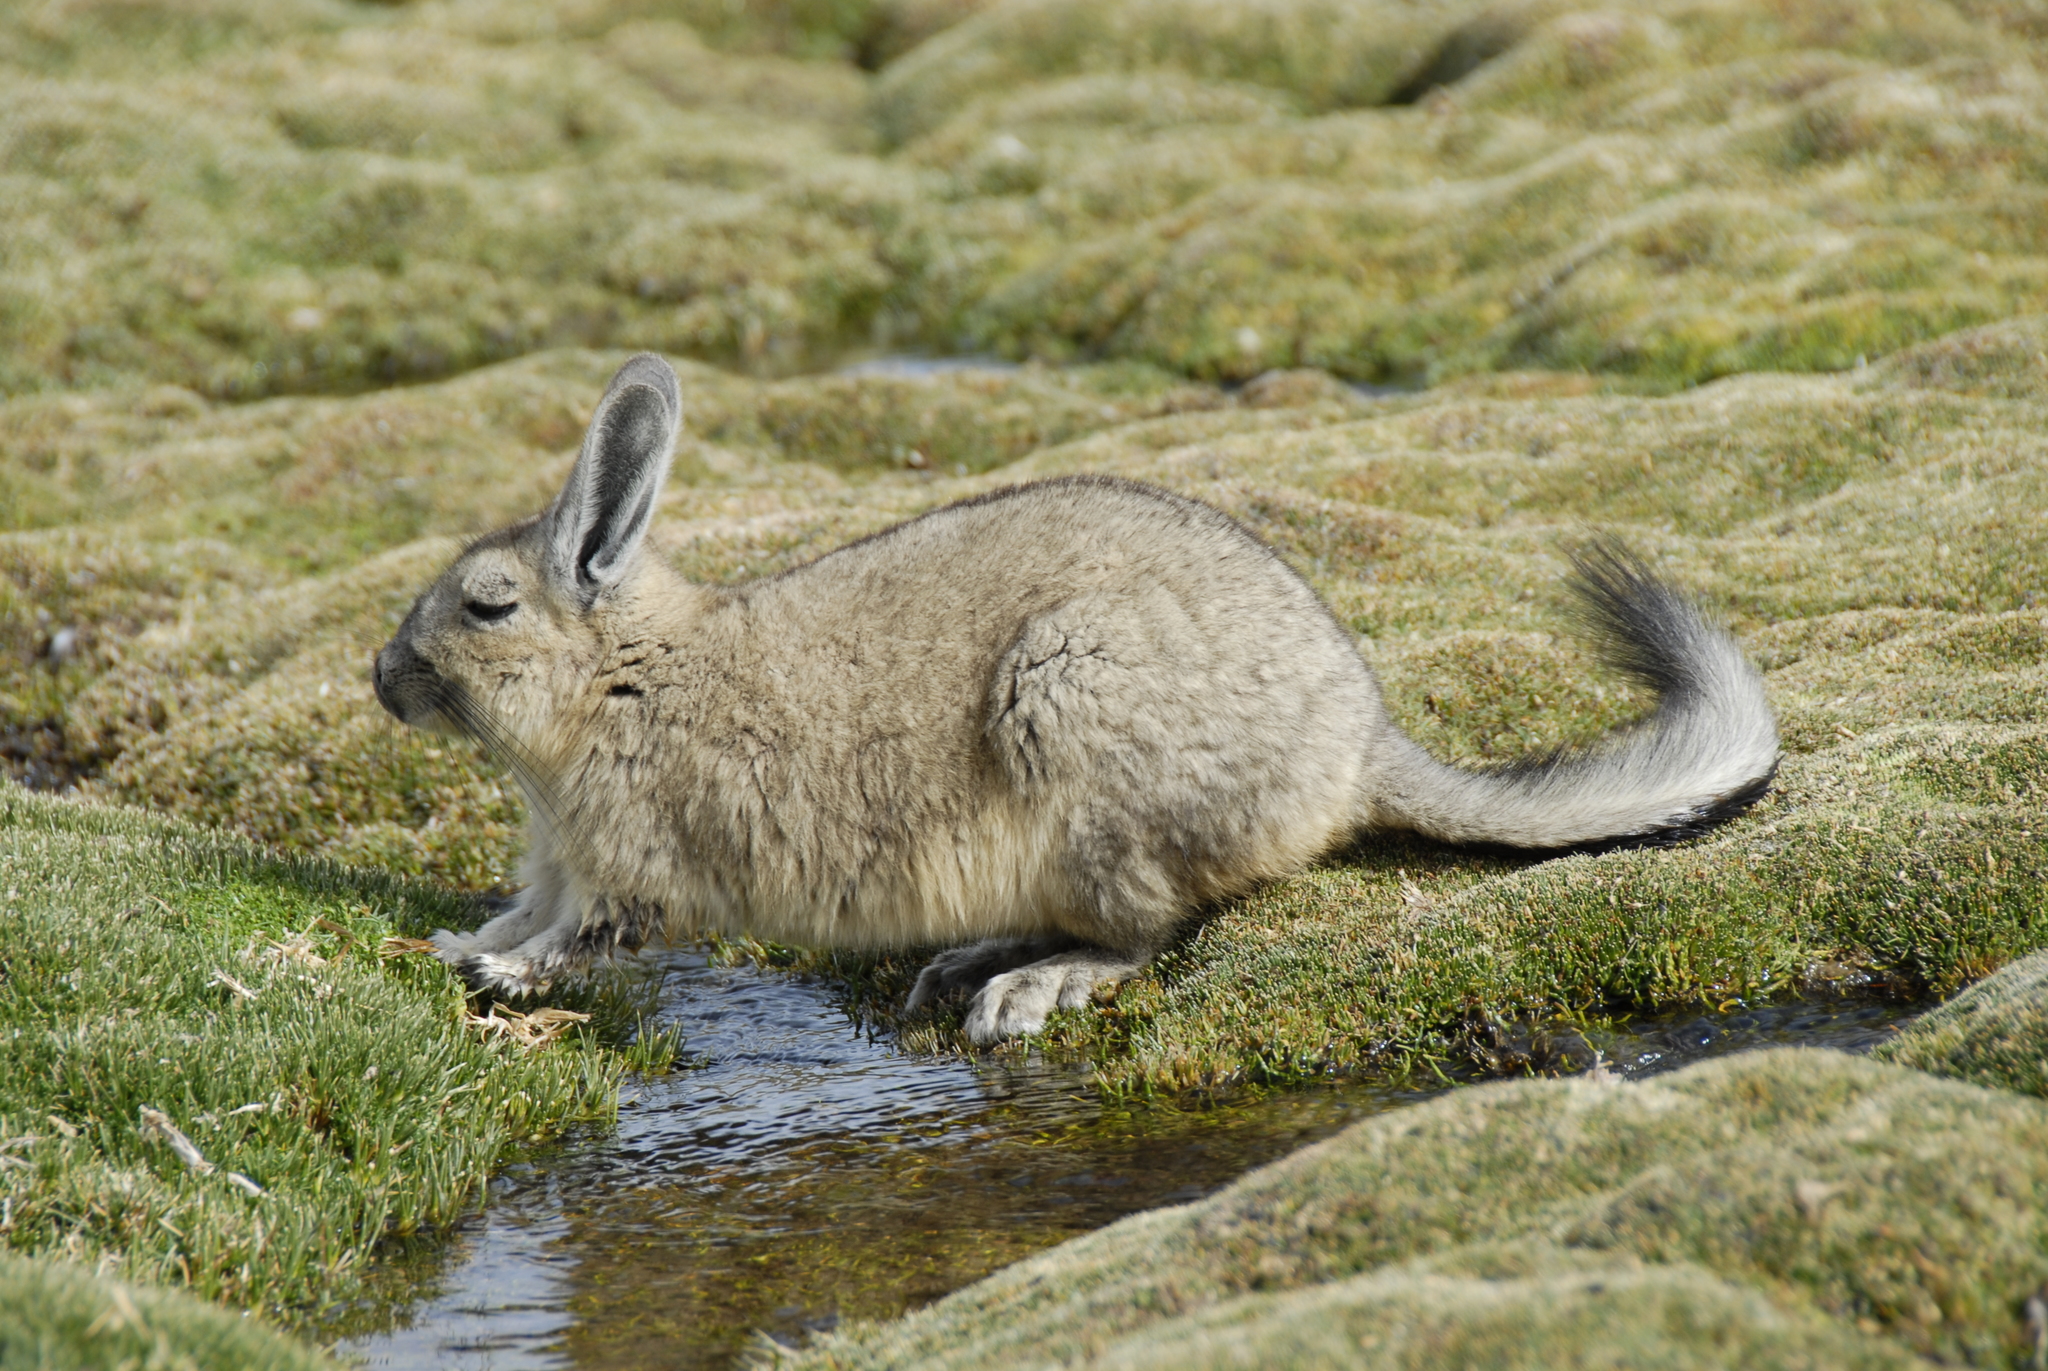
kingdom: Animalia
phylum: Chordata
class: Mammalia
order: Rodentia
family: Chinchillidae
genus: Lagidium
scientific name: Lagidium viscacia
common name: Southern viscacha
